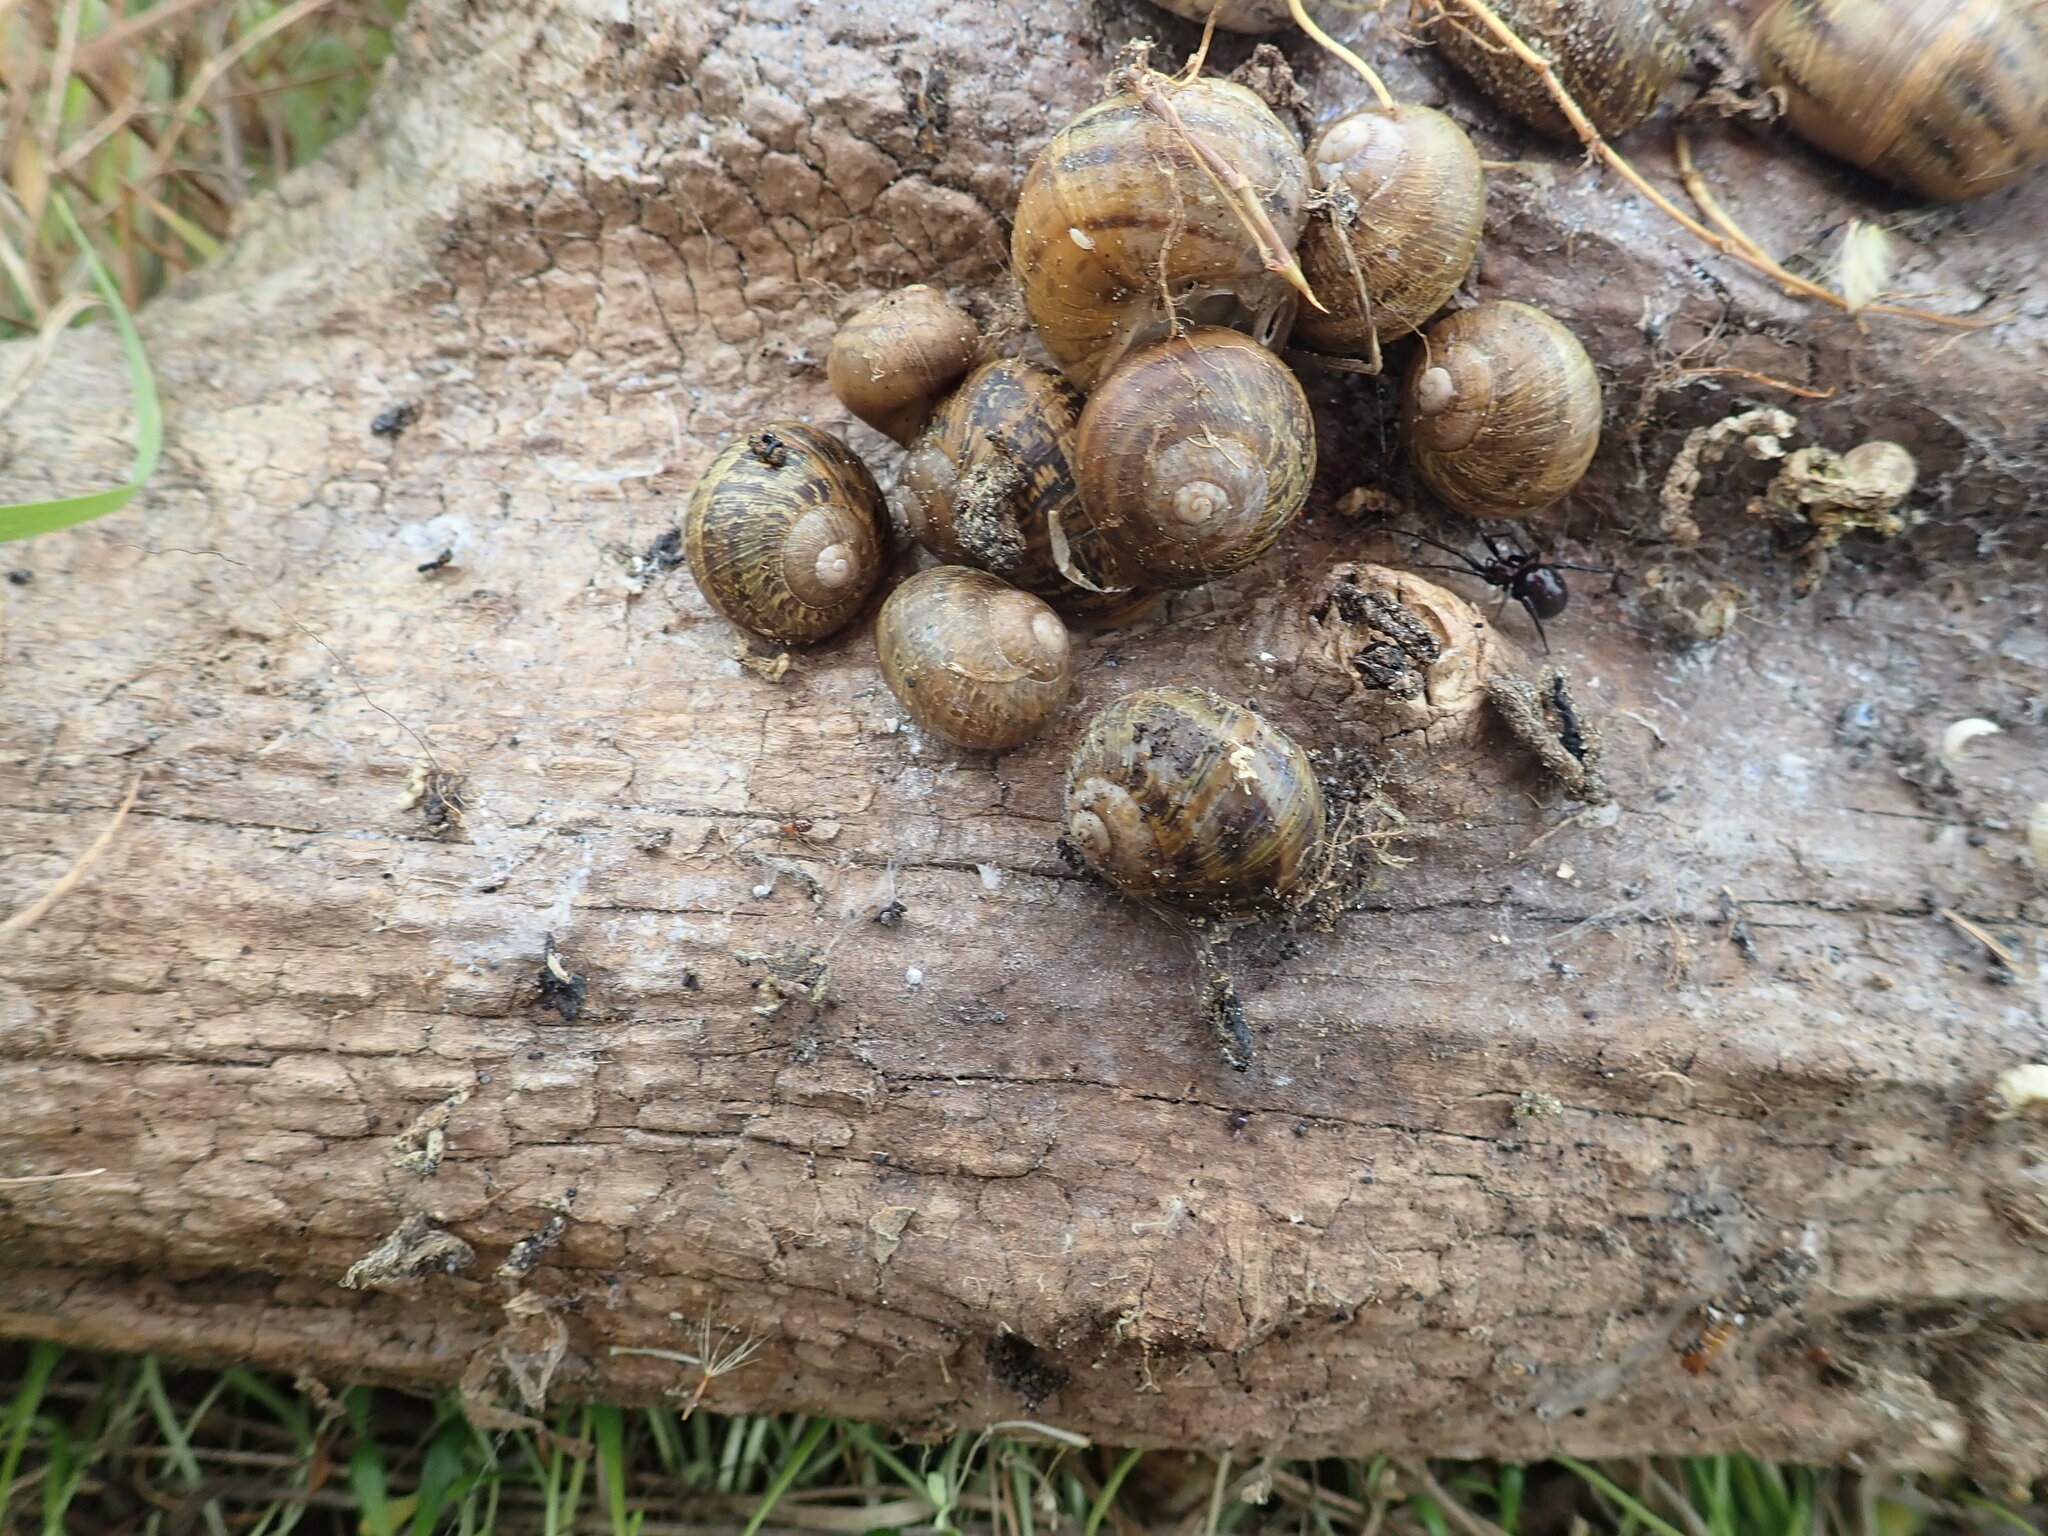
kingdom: Animalia
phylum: Arthropoda
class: Arachnida
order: Araneae
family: Theridiidae
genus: Steatoda
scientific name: Steatoda capensis
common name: Cobweb weaver
